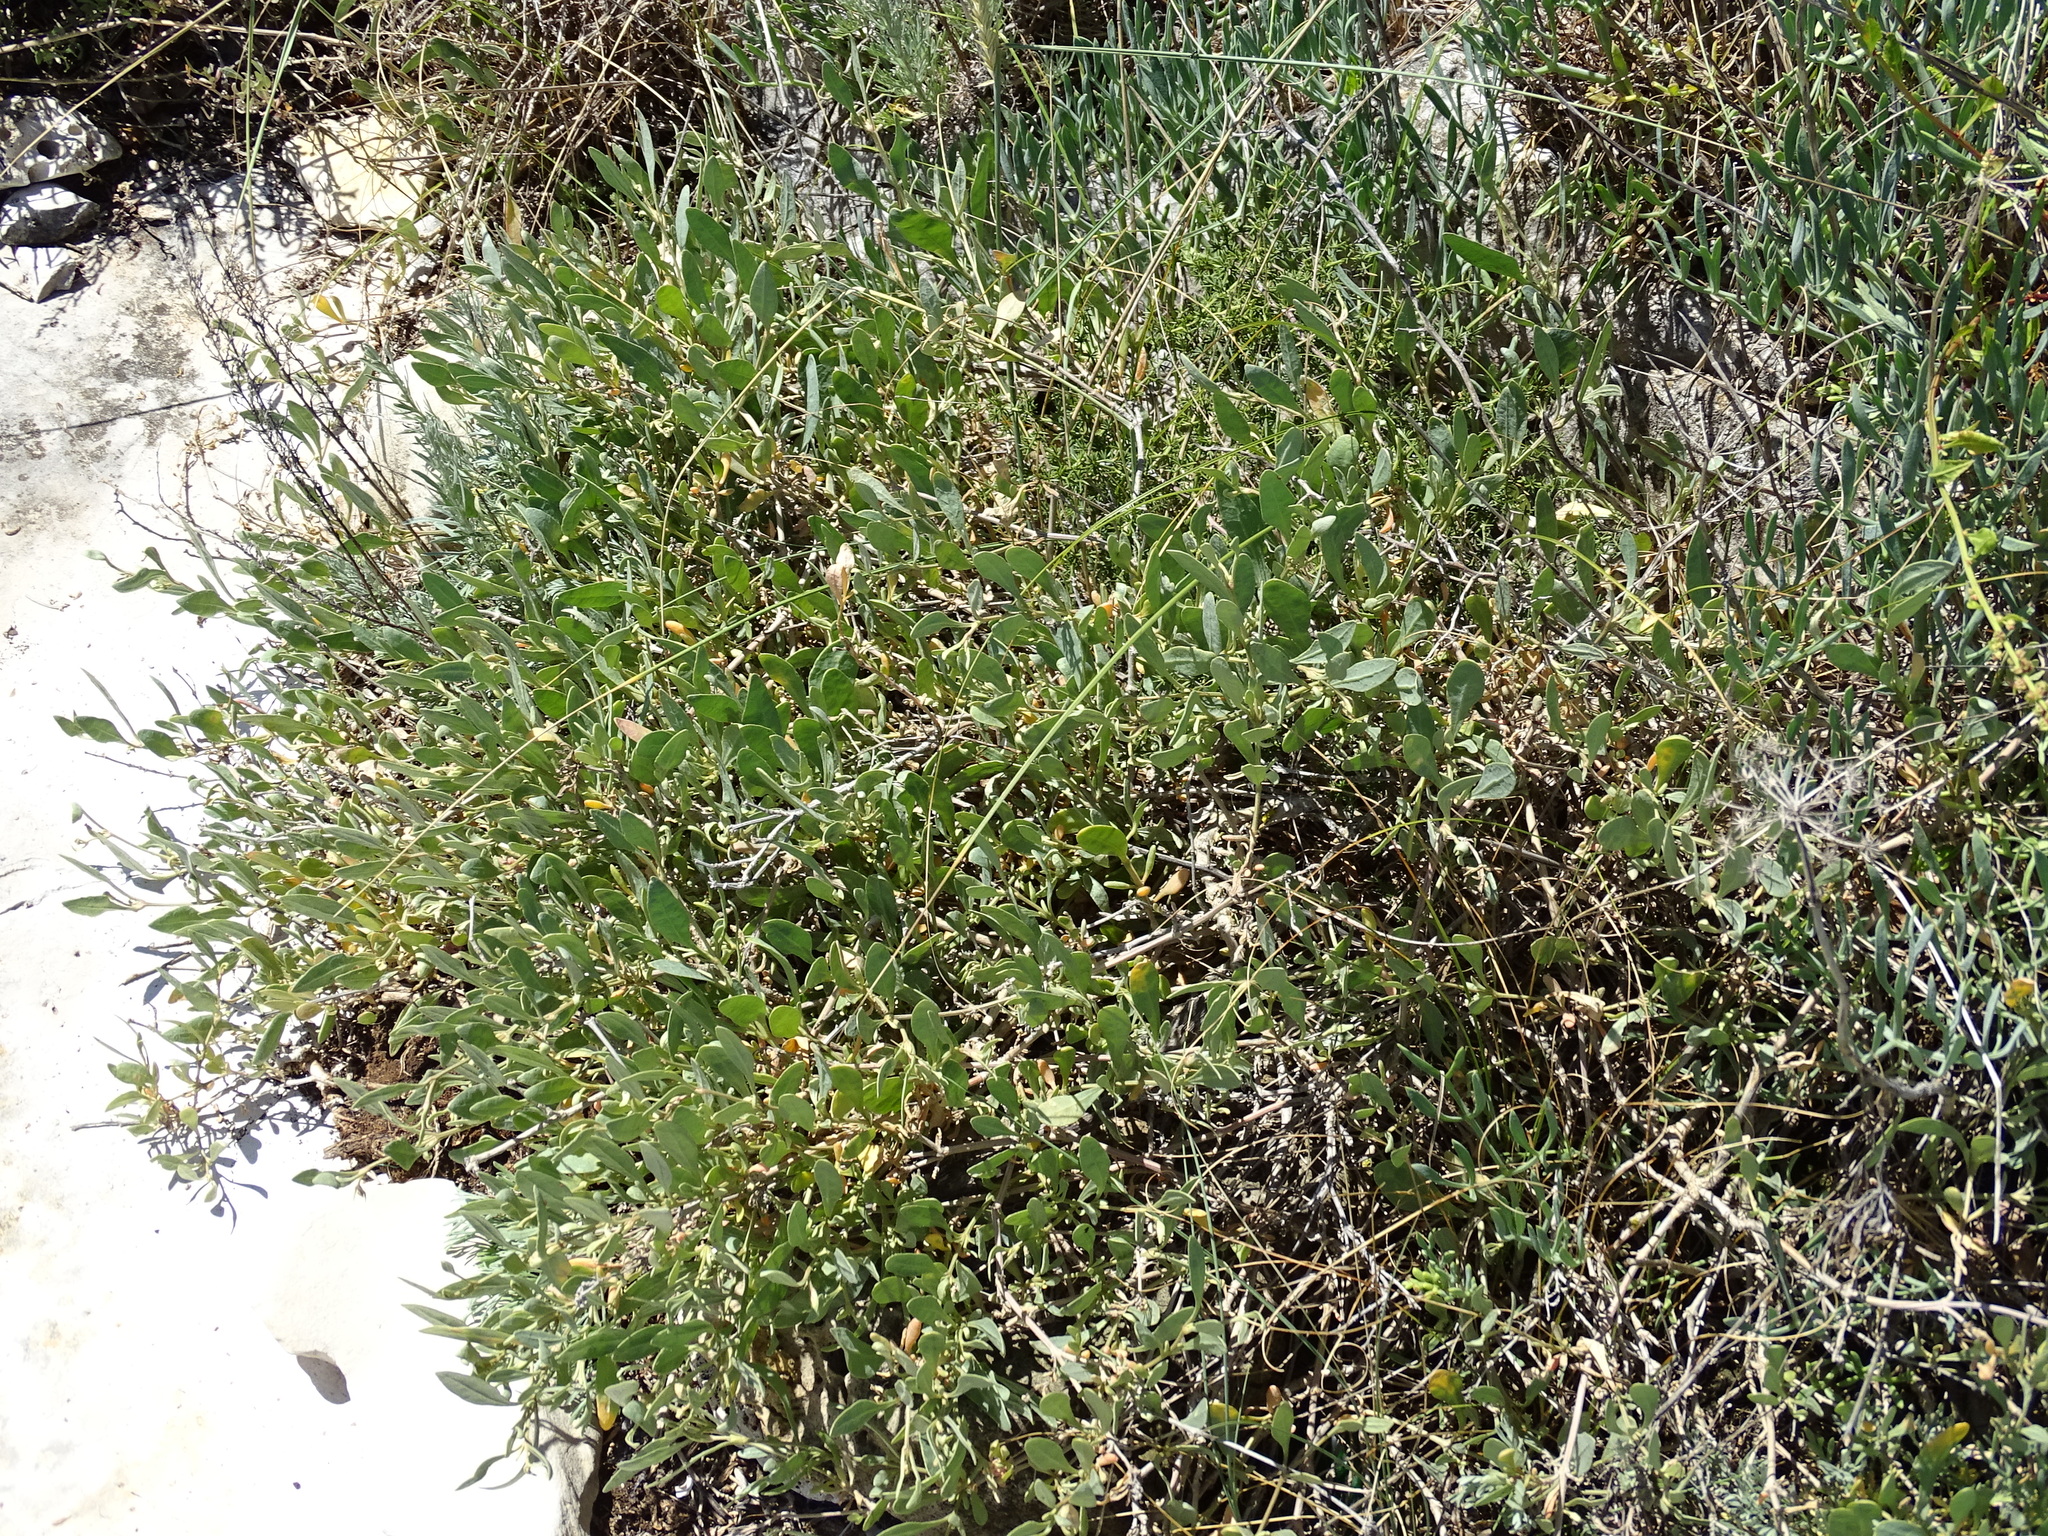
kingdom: Plantae
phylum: Tracheophyta
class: Magnoliopsida
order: Caryophyllales
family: Amaranthaceae
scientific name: Amaranthaceae
